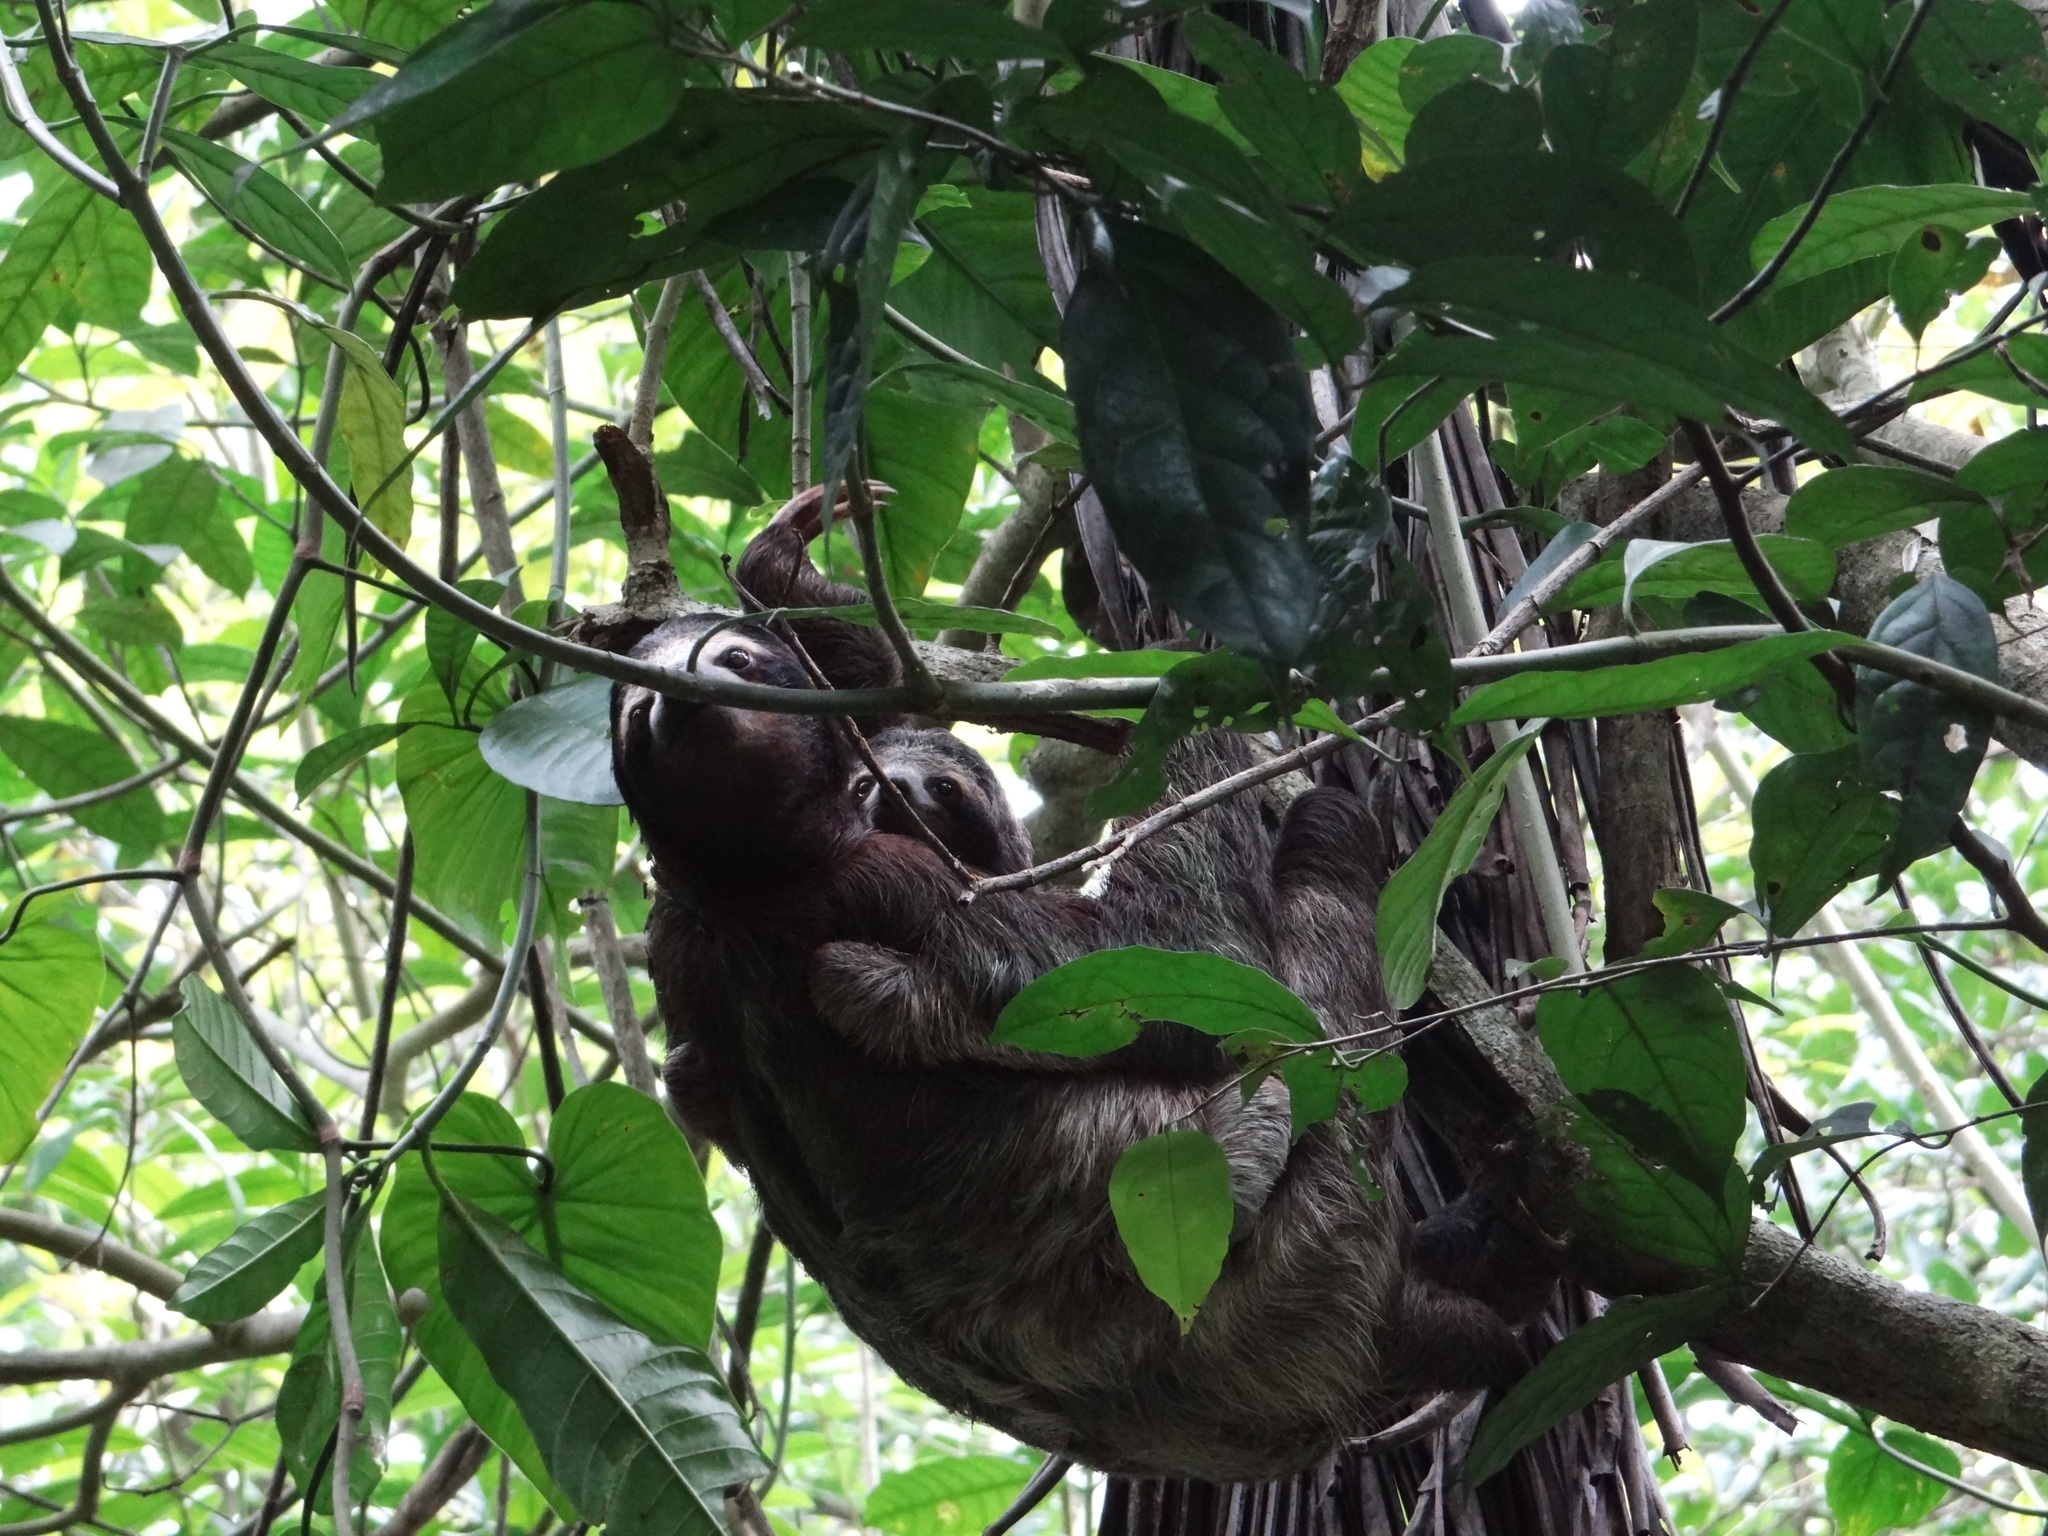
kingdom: Animalia
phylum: Chordata
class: Mammalia
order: Pilosa
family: Bradypodidae
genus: Bradypus
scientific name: Bradypus variegatus
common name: Brown-throated three-toed sloth
